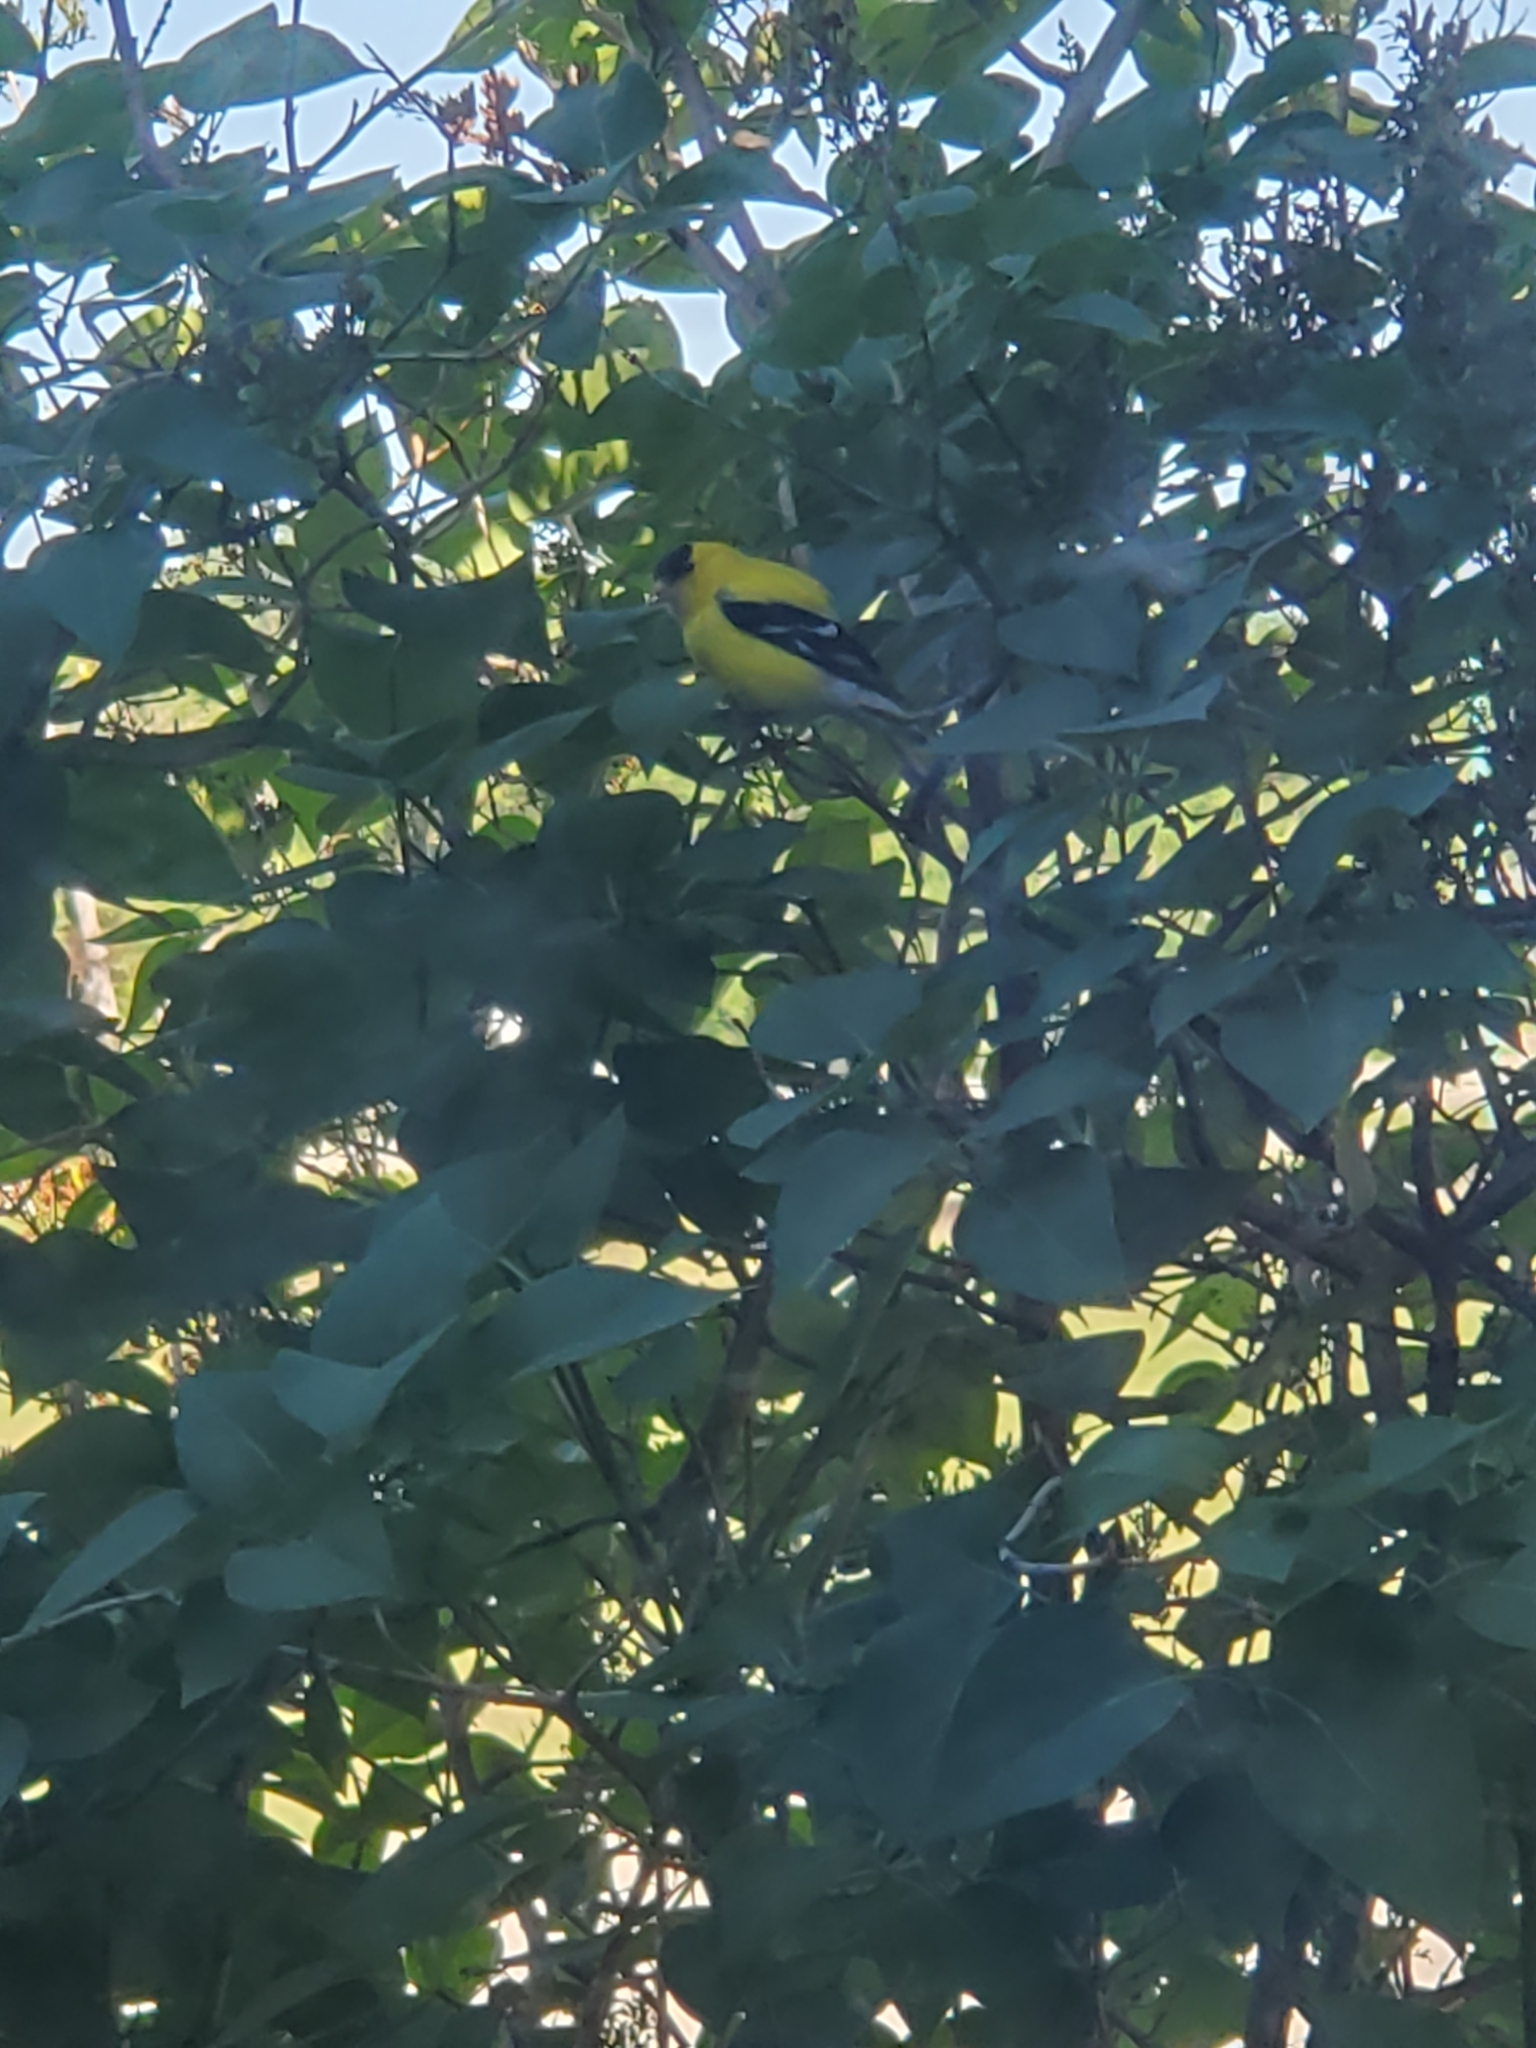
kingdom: Animalia
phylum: Chordata
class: Aves
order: Passeriformes
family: Fringillidae
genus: Spinus
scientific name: Spinus tristis
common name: American goldfinch
